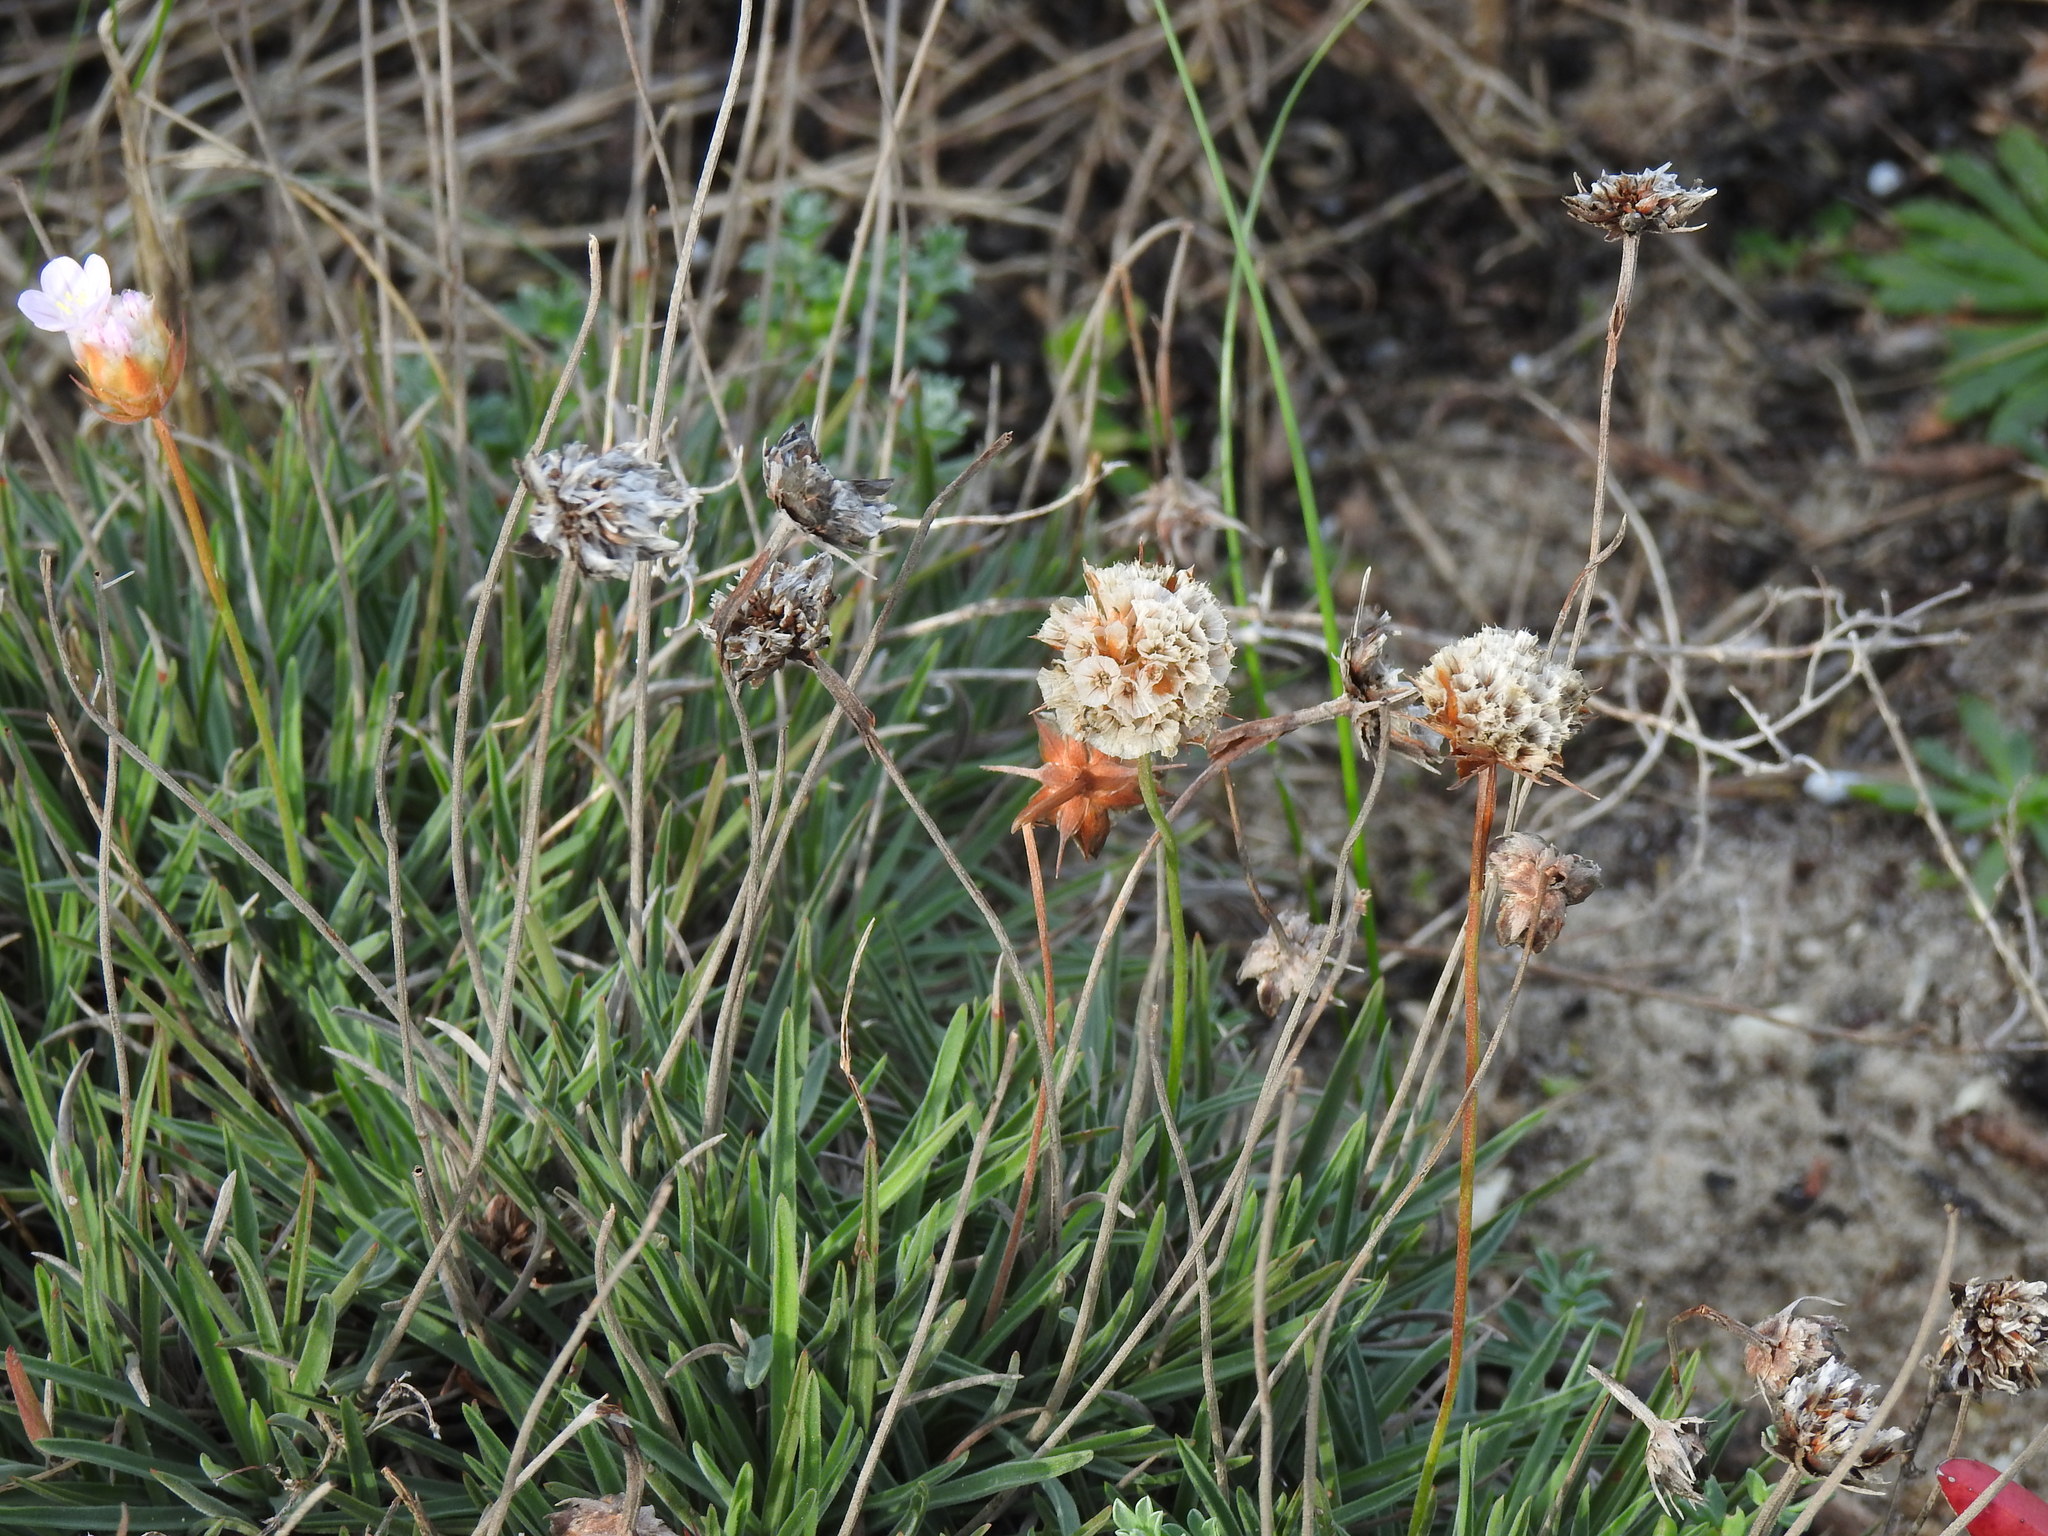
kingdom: Plantae
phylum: Tracheophyta
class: Magnoliopsida
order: Caryophyllales
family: Plumbaginaceae
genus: Armeria
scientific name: Armeria welwitschii
